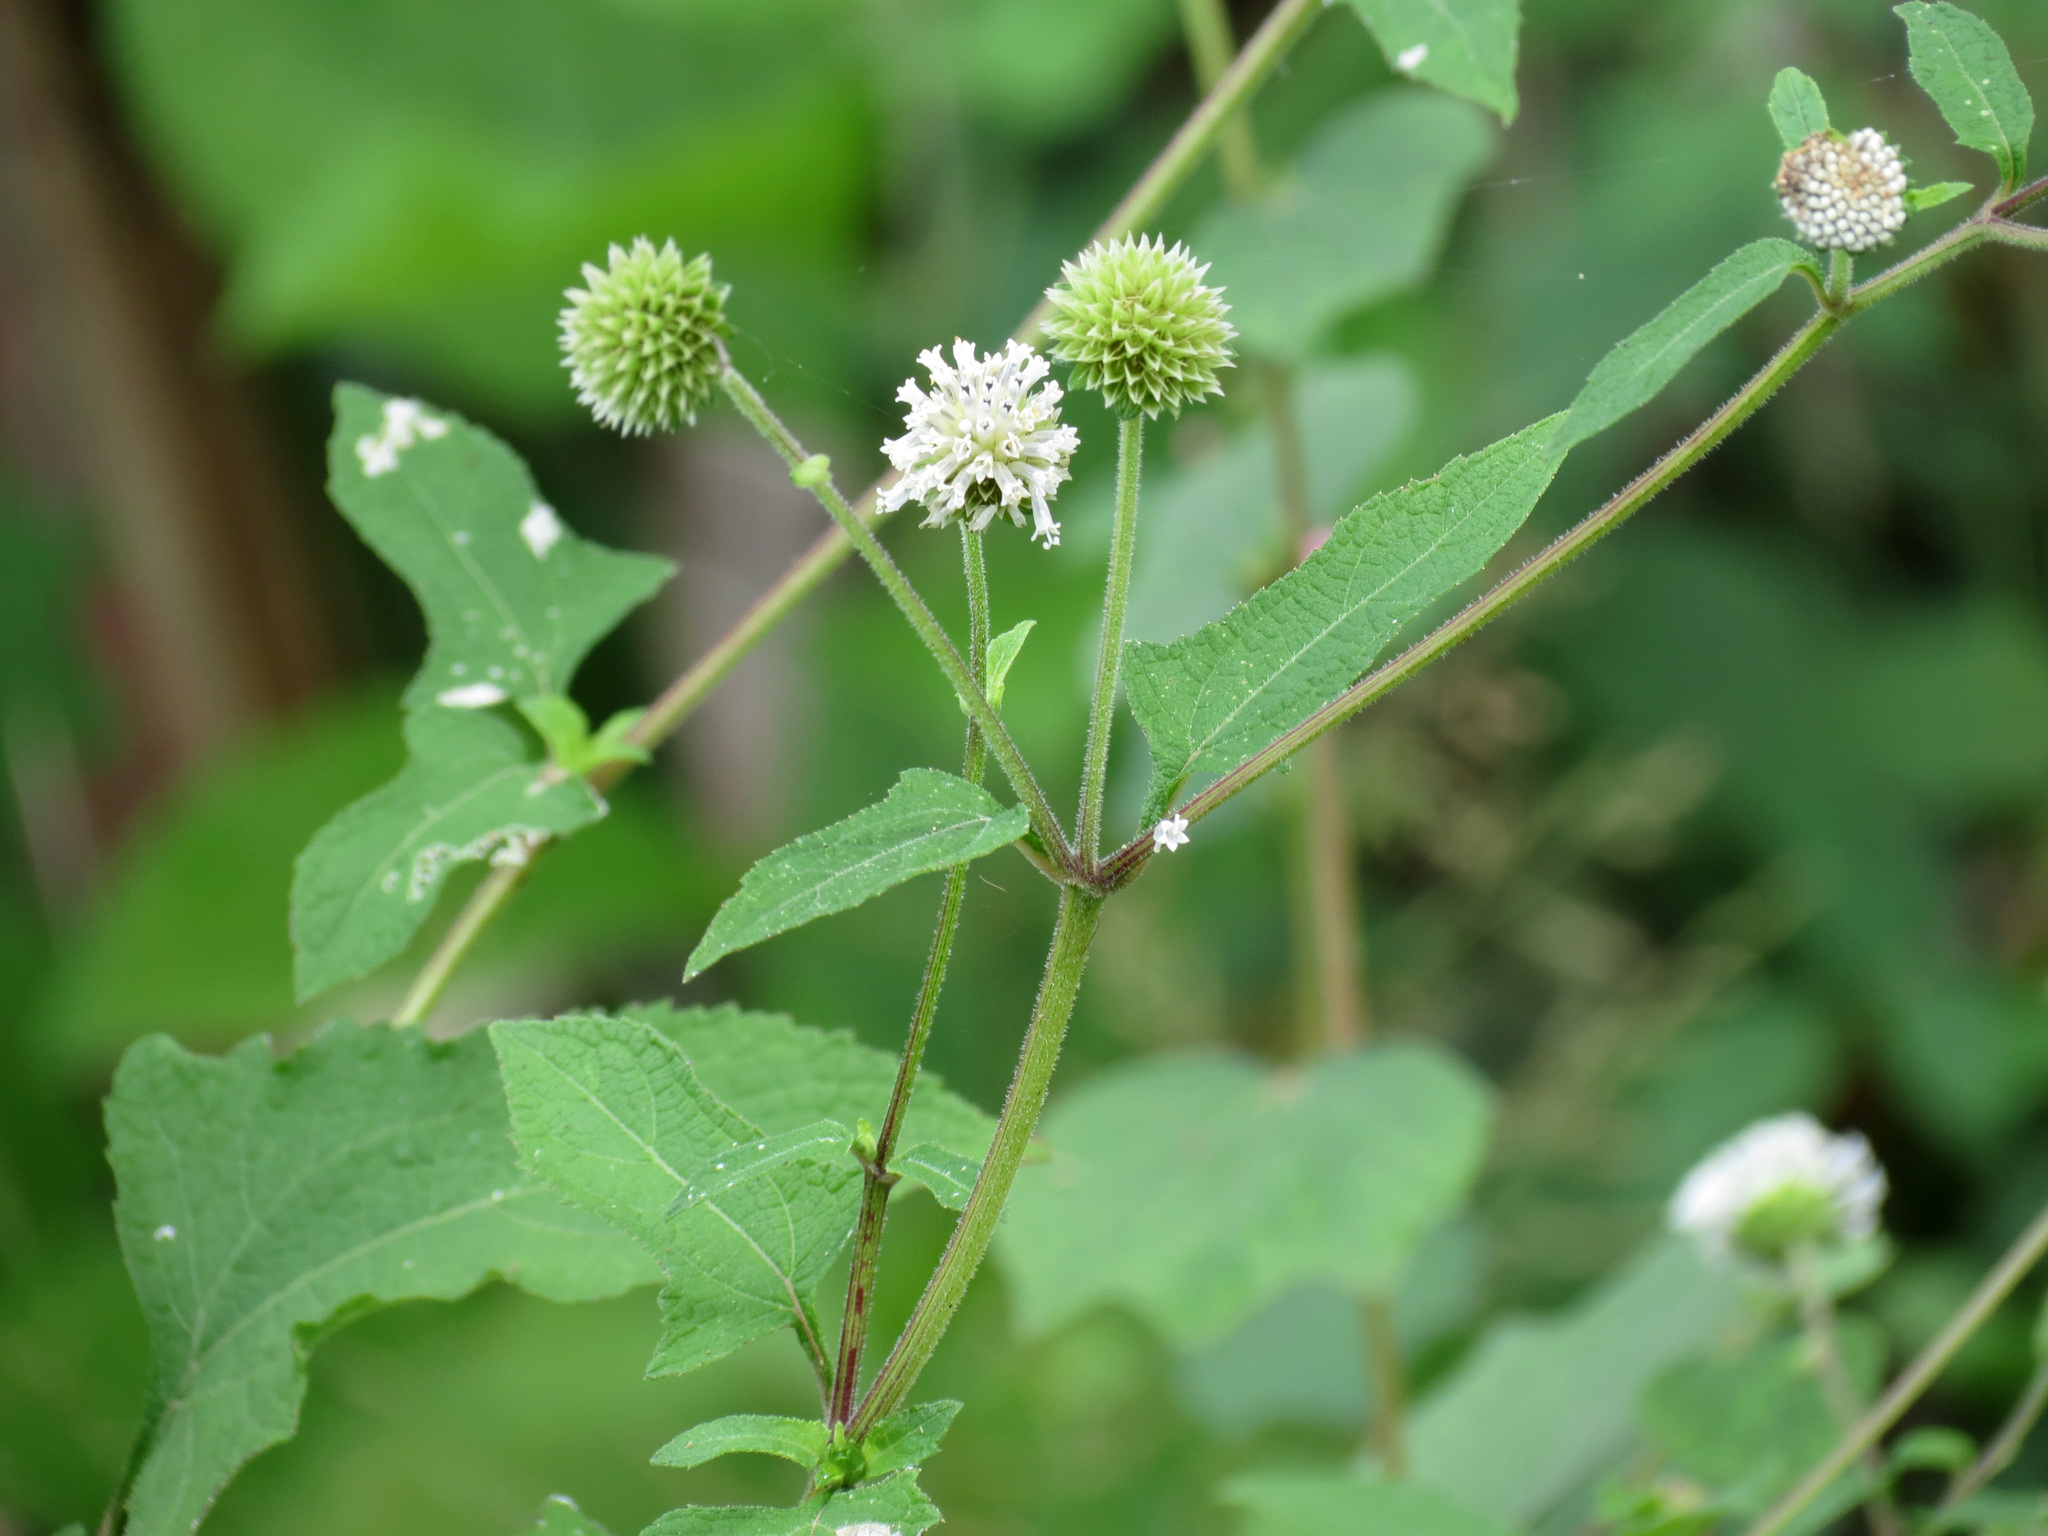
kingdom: Plantae
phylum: Tracheophyta
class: Magnoliopsida
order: Asterales
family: Asteraceae
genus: Melanthera
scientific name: Melanthera nivea
